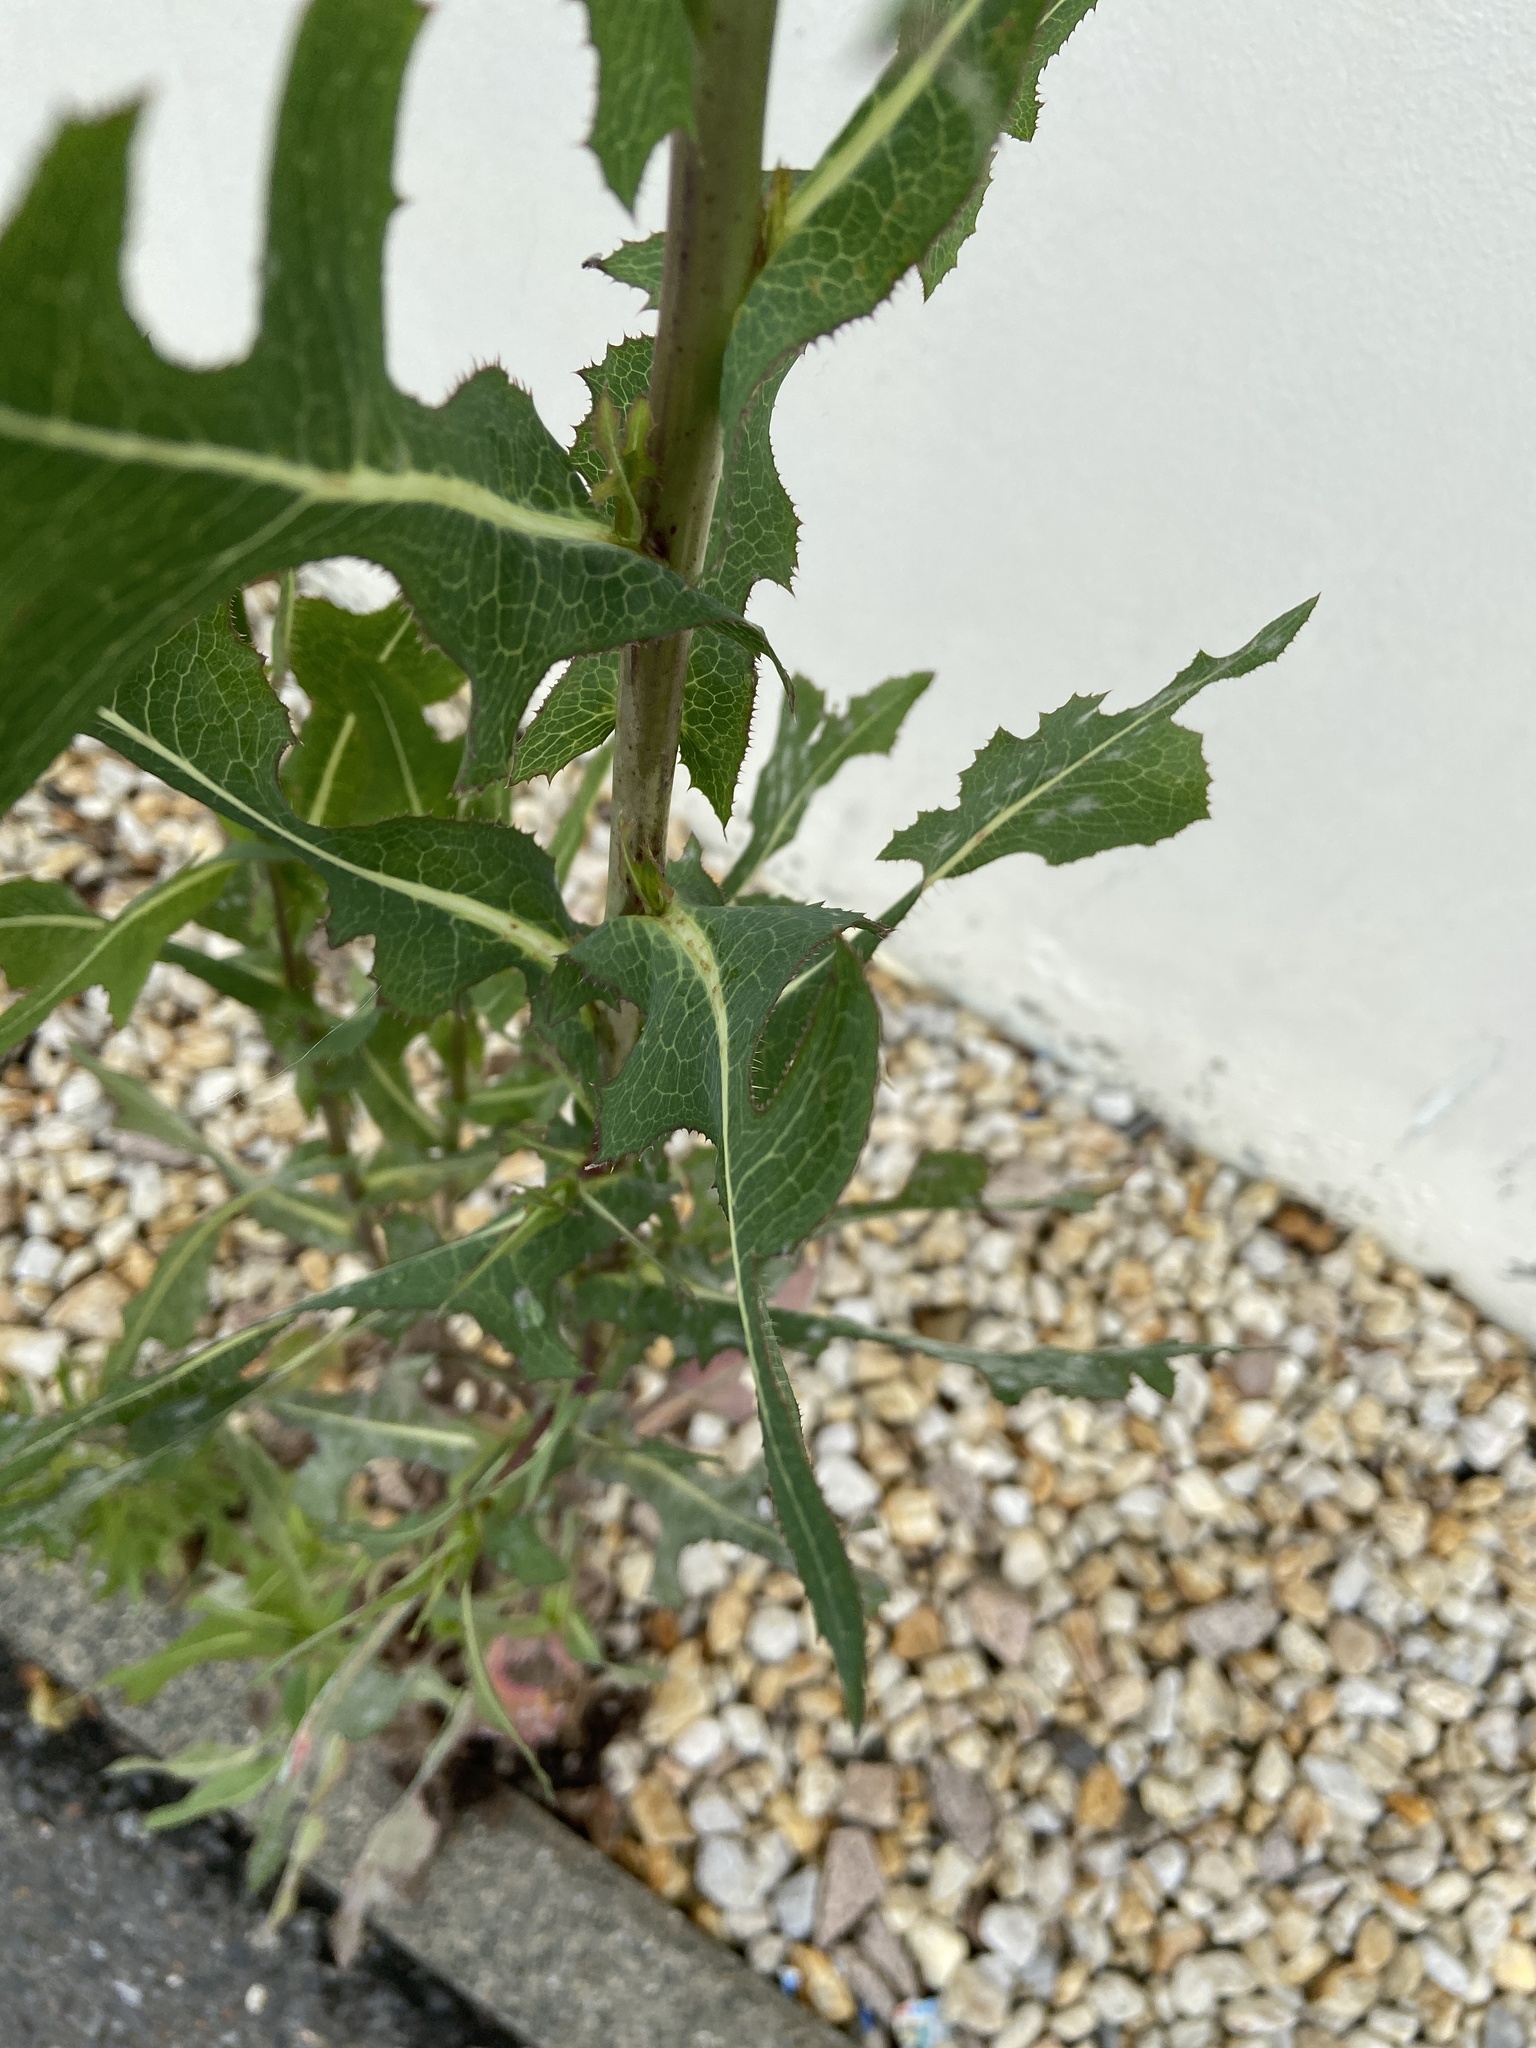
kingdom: Plantae
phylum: Tracheophyta
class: Magnoliopsida
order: Asterales
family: Asteraceae
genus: Lactuca
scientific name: Lactuca serriola
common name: Prickly lettuce
